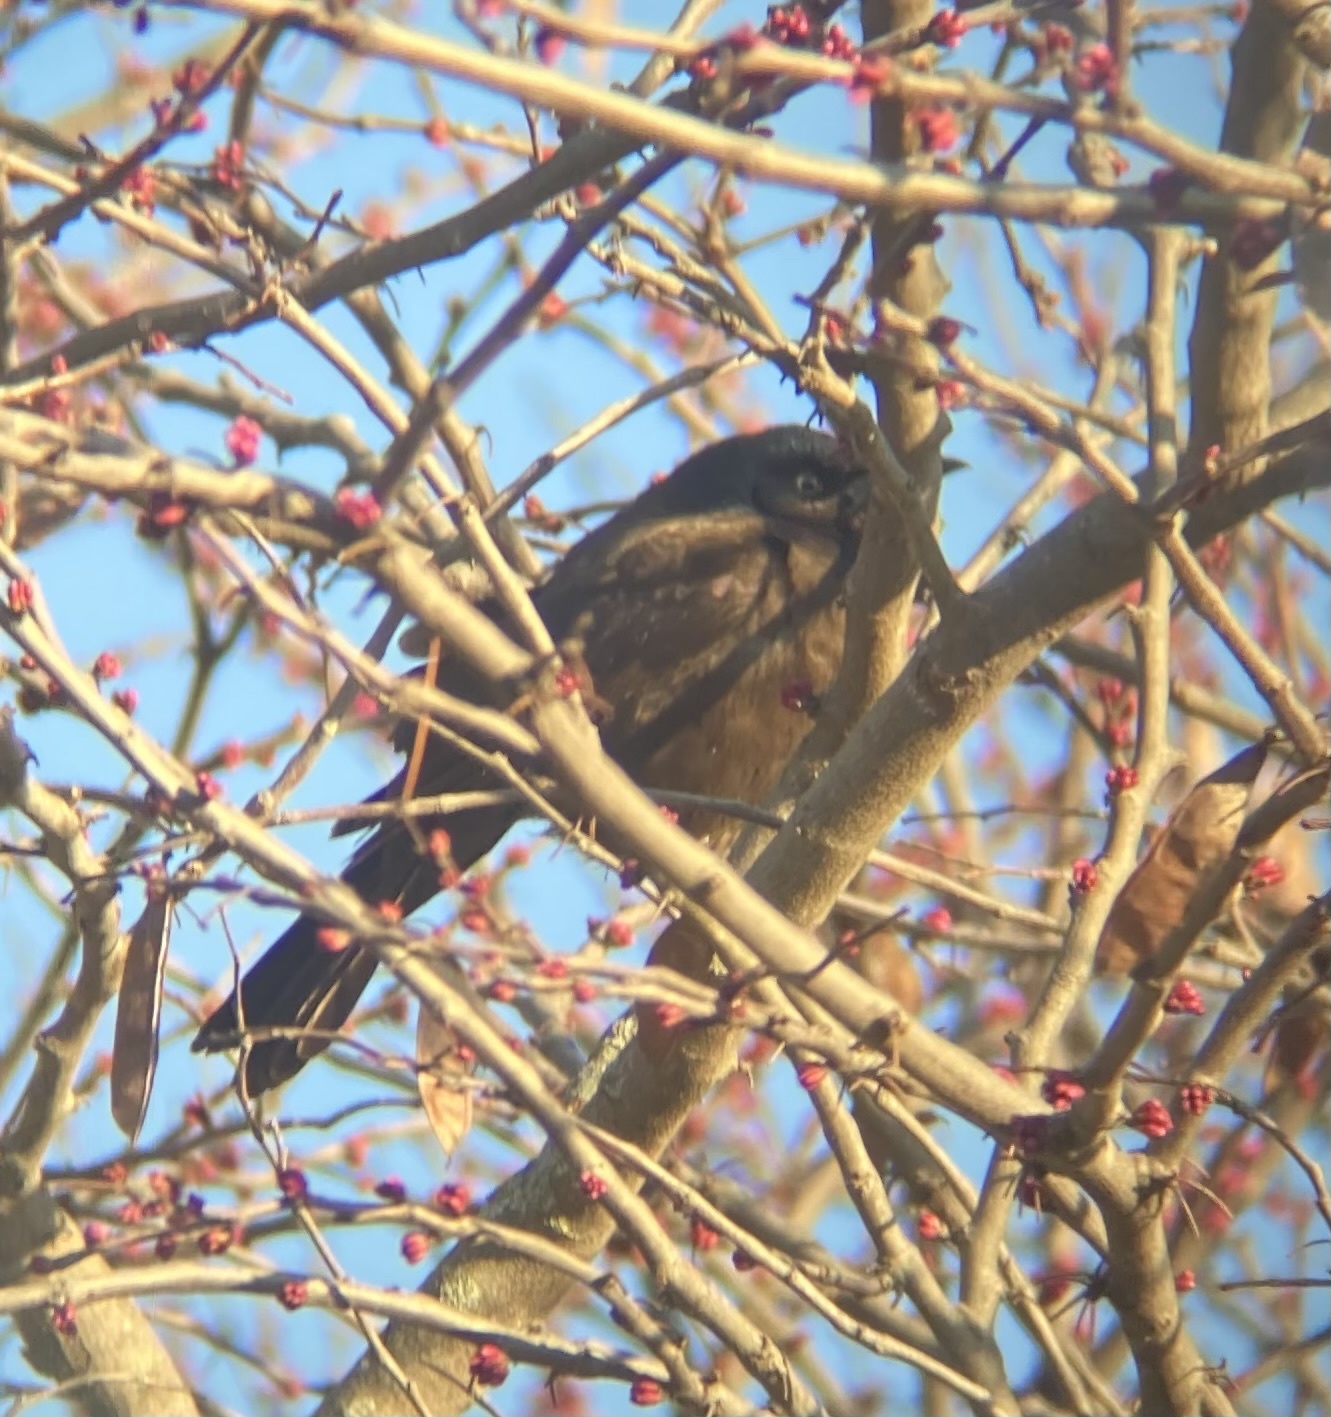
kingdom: Animalia
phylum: Chordata
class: Aves
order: Passeriformes
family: Icteridae
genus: Quiscalus
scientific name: Quiscalus quiscula
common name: Common grackle
